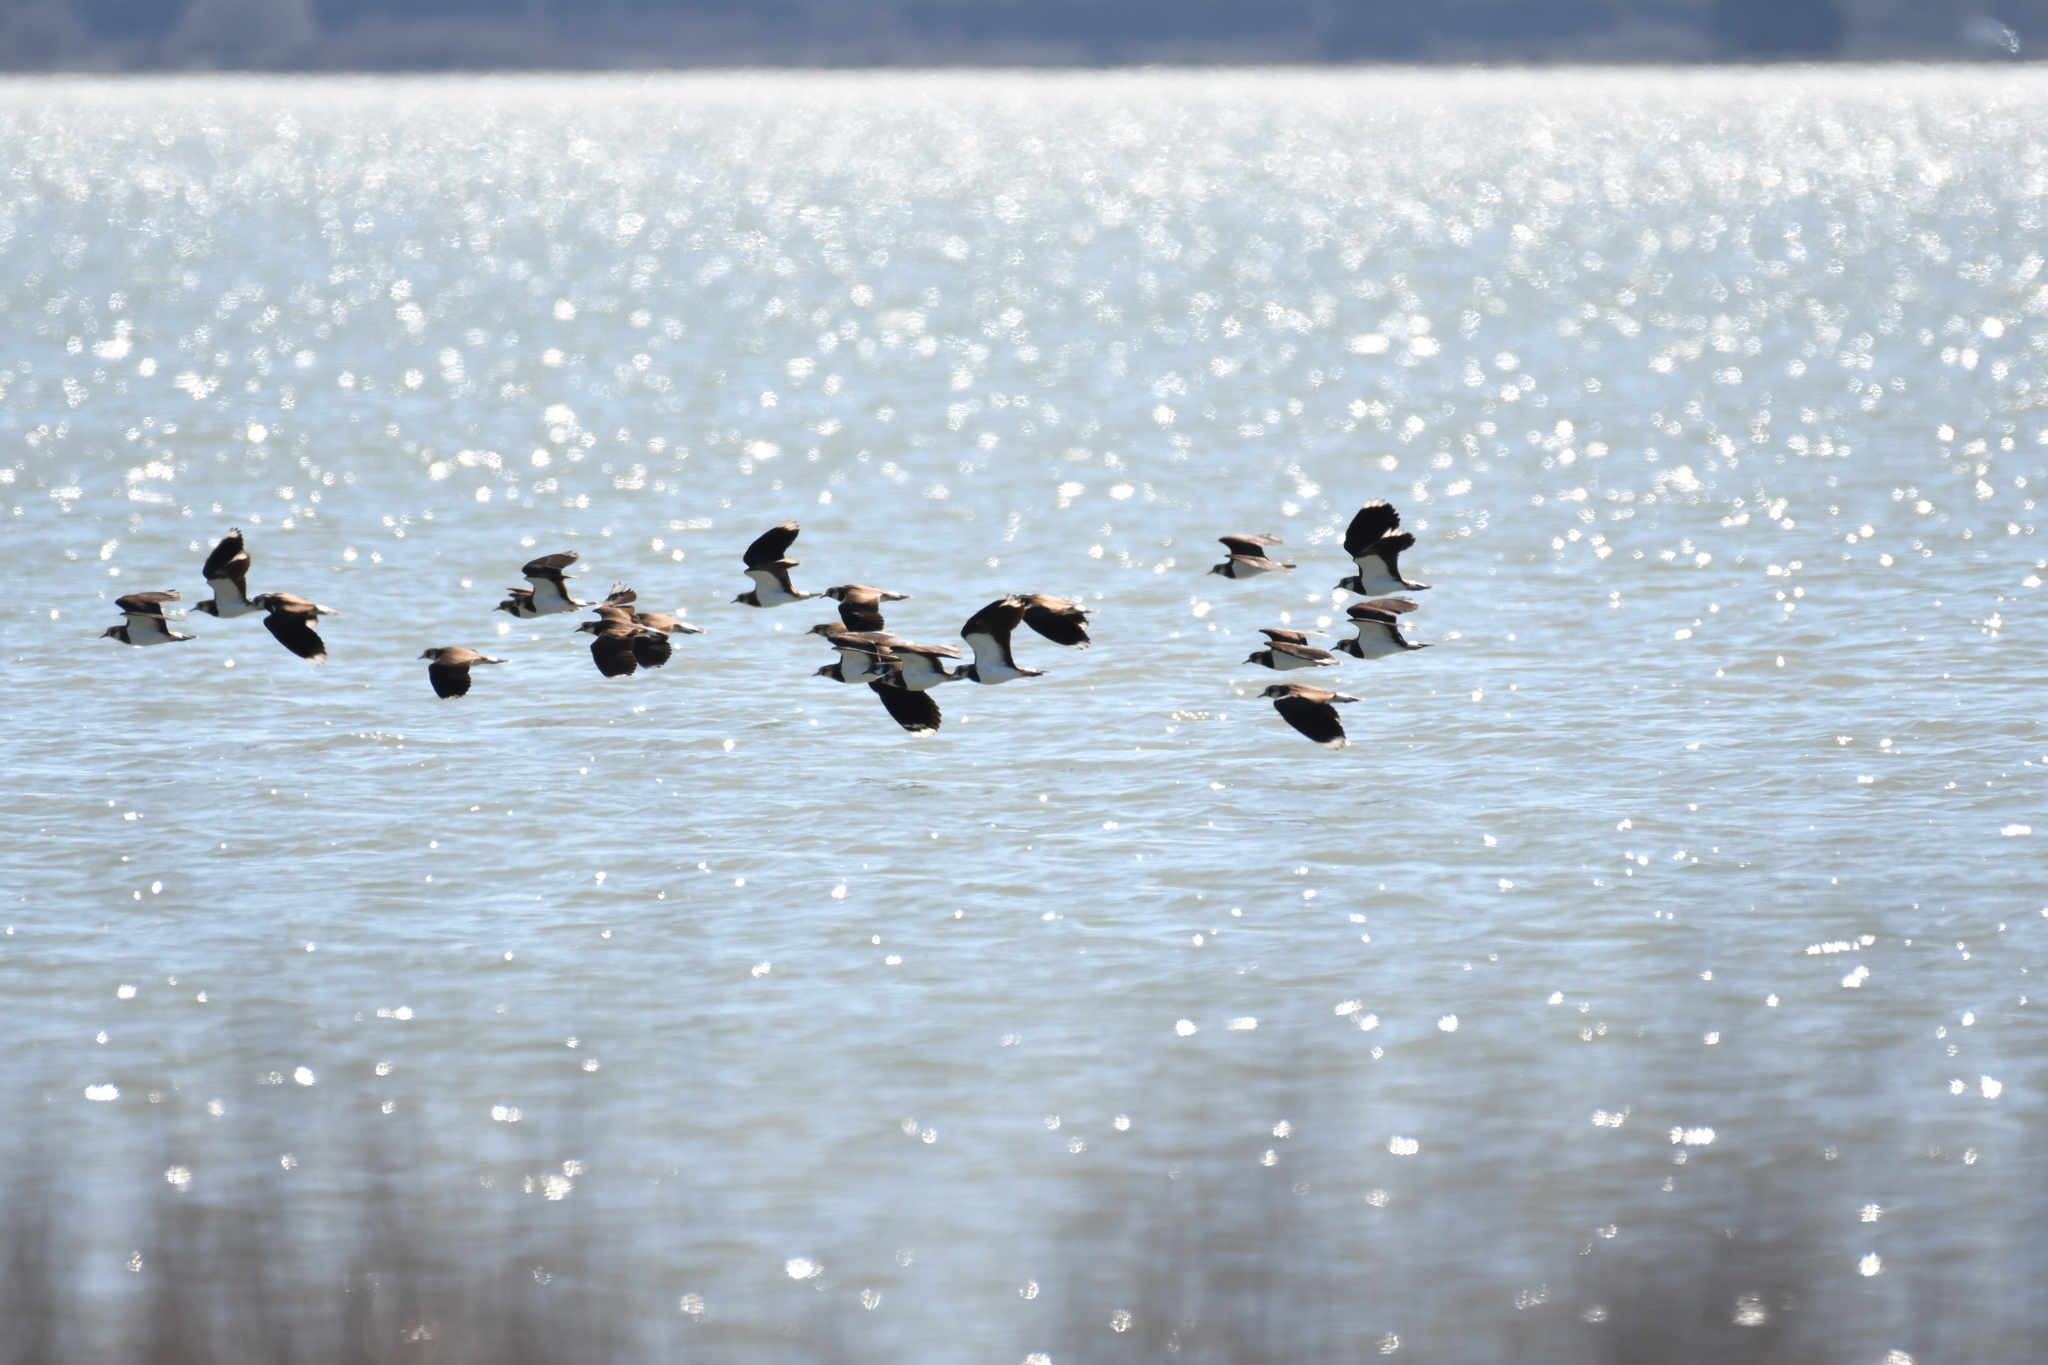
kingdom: Animalia
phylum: Chordata
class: Aves
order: Charadriiformes
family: Charadriidae
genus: Vanellus
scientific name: Vanellus vanellus
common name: Northern lapwing
